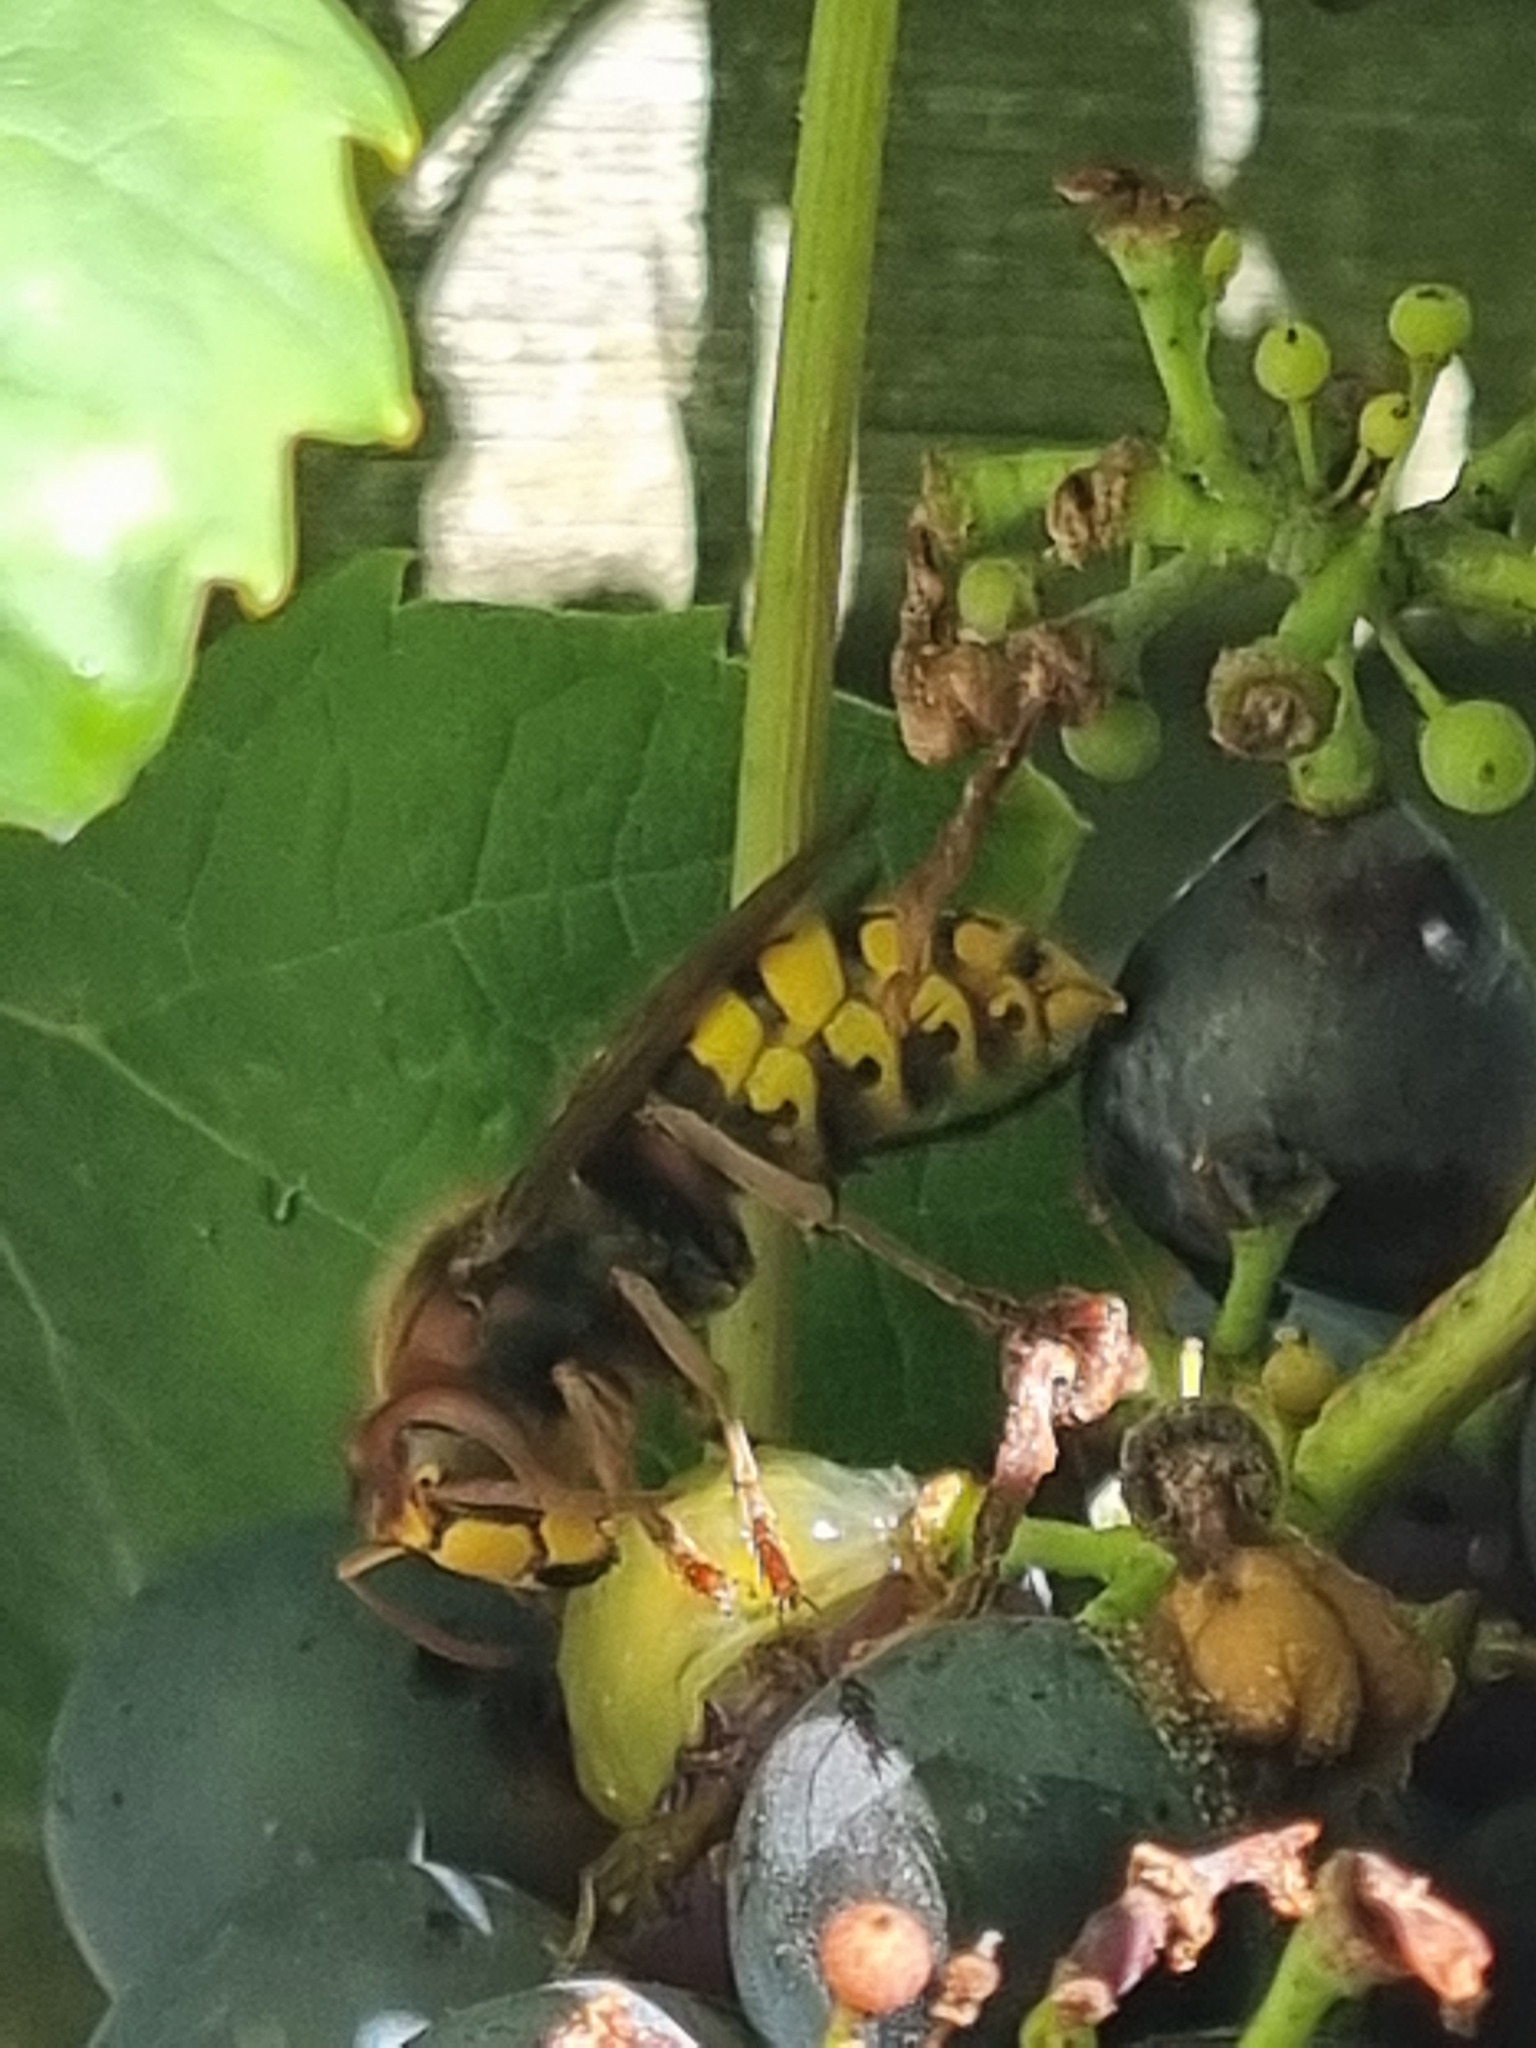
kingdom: Animalia
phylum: Arthropoda
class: Insecta
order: Hymenoptera
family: Vespidae
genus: Vespa
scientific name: Vespa crabro
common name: Hornet
